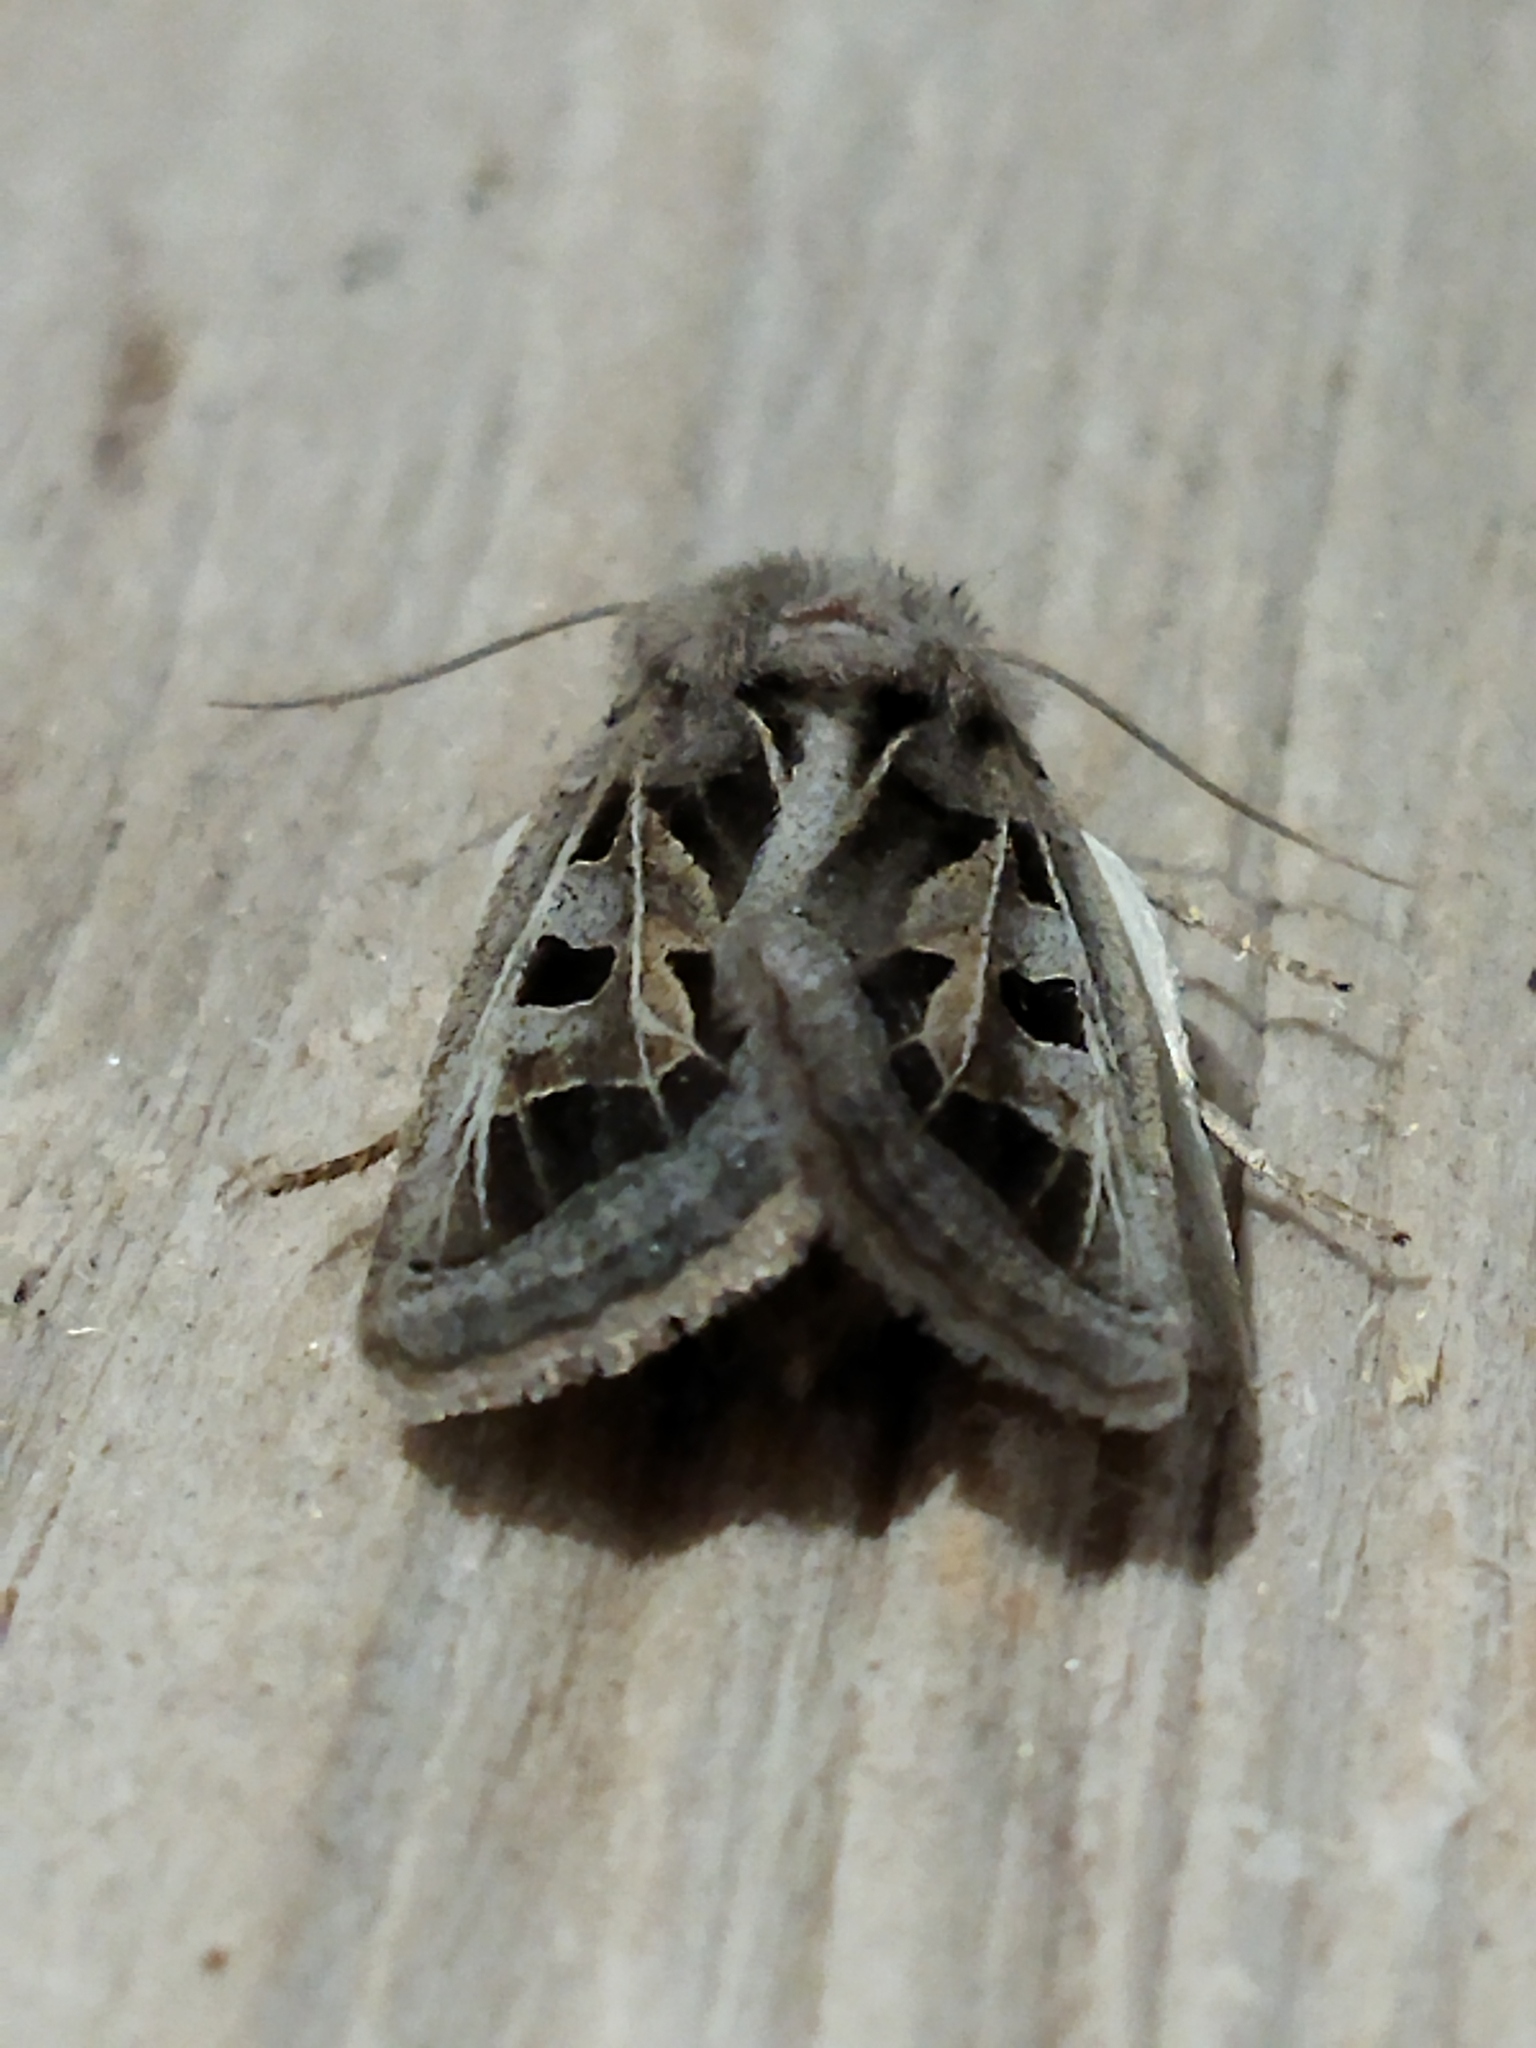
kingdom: Animalia
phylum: Arthropoda
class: Insecta
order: Lepidoptera
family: Noctuidae
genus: Episema
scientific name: Episema glaucina
